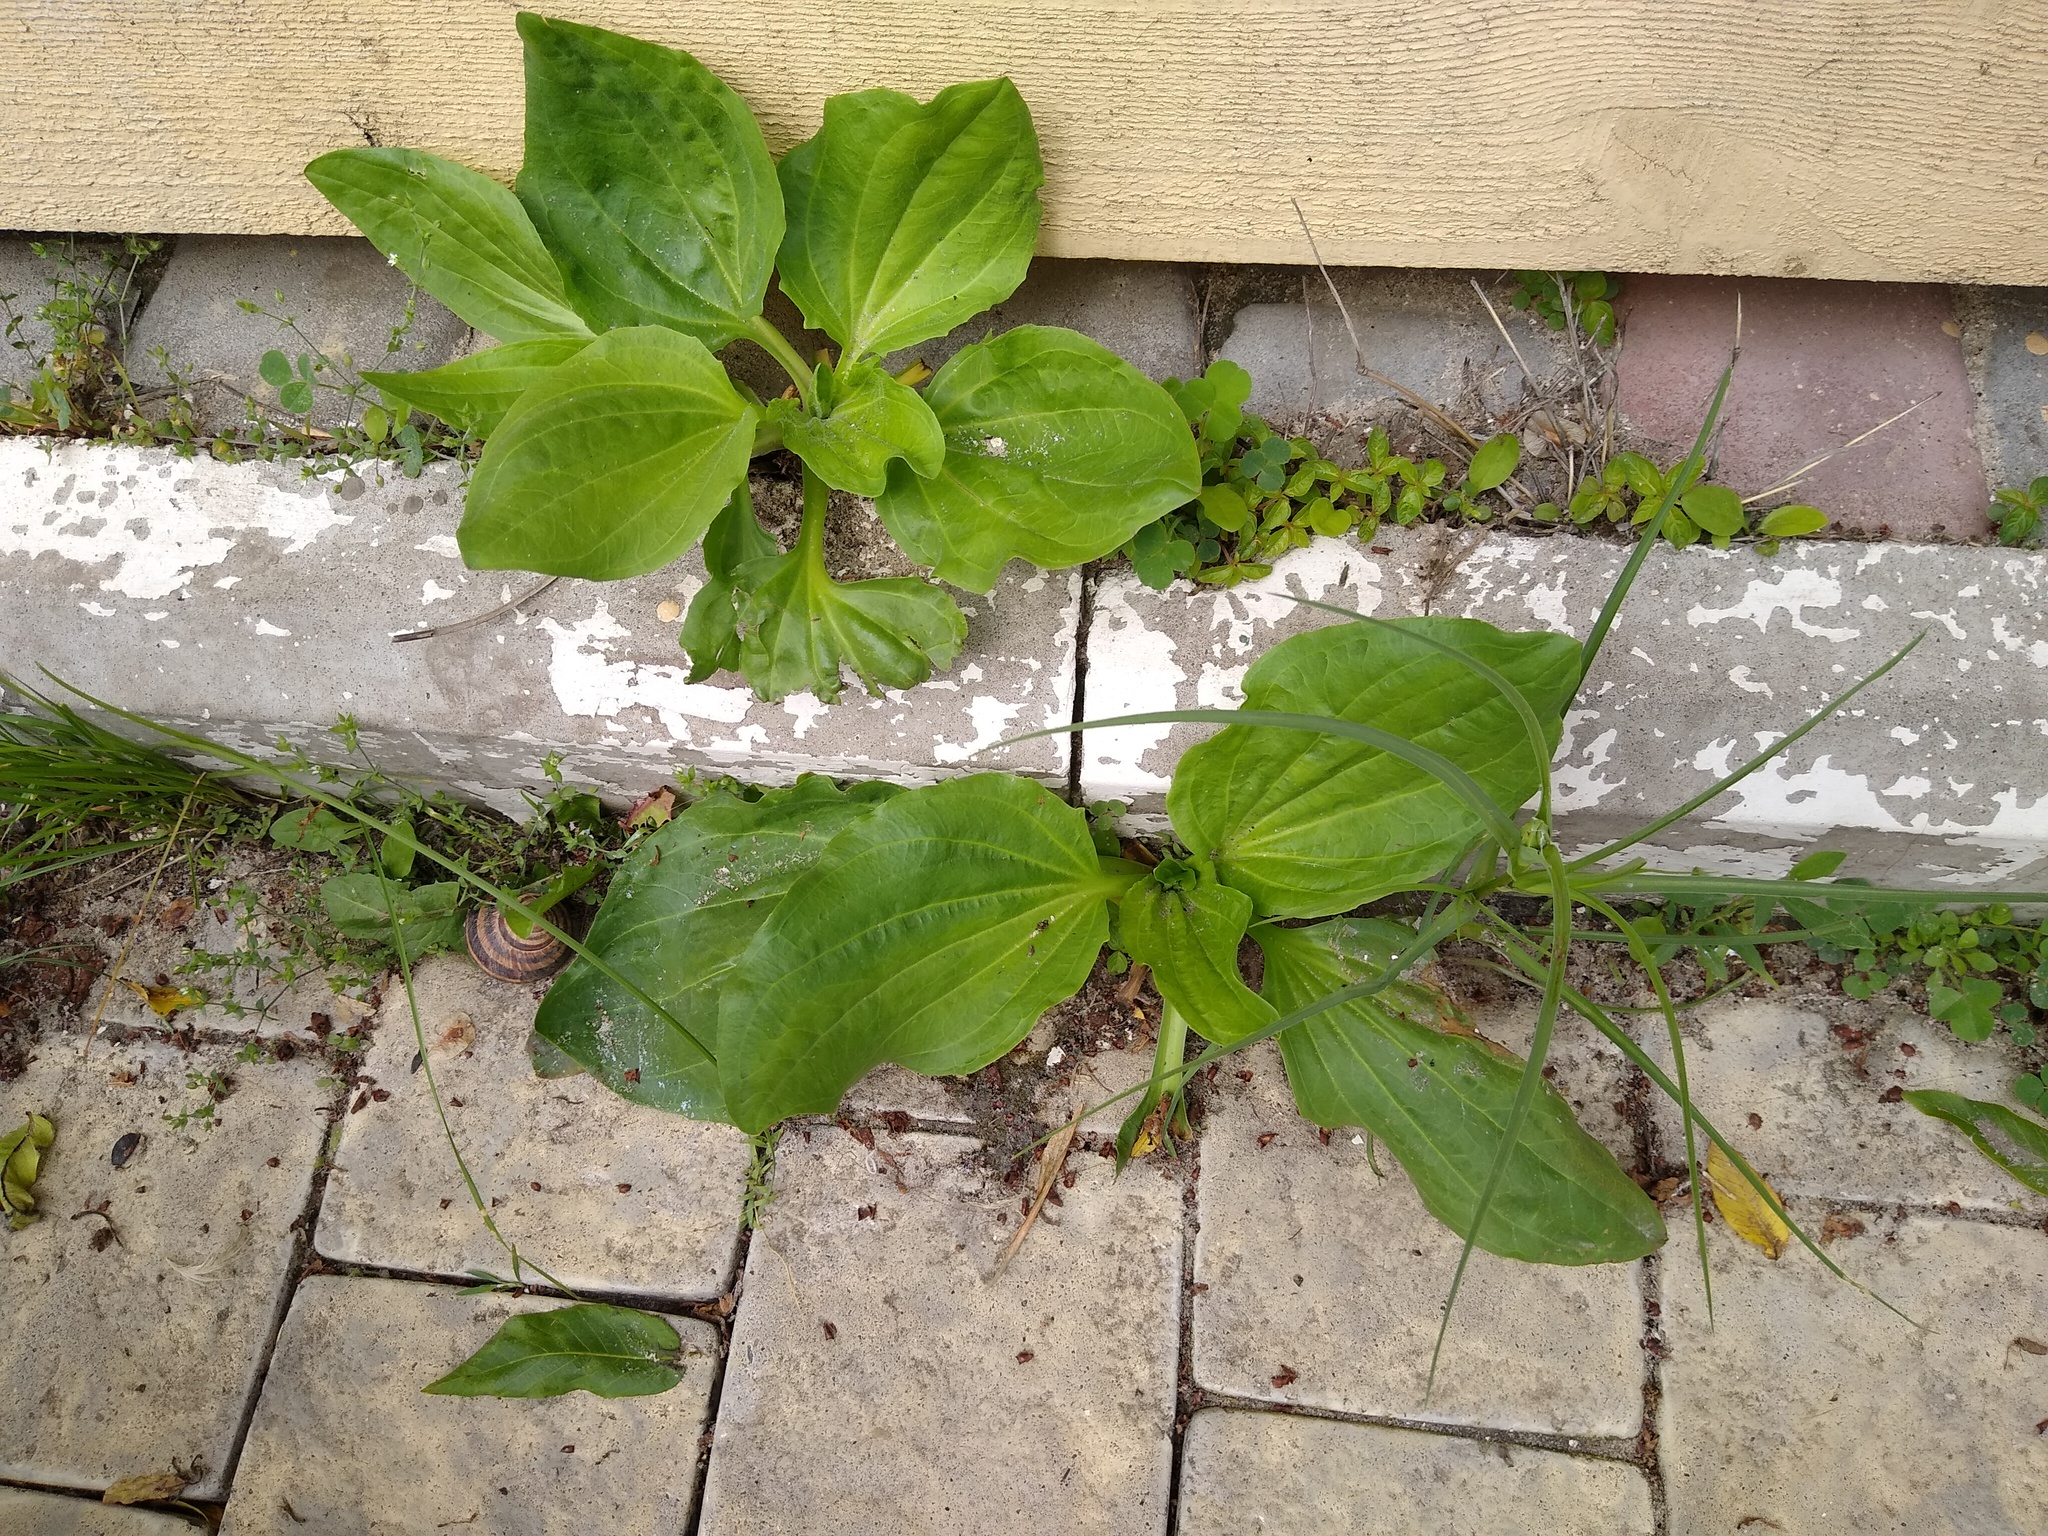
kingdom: Plantae
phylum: Tracheophyta
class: Magnoliopsida
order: Lamiales
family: Plantaginaceae
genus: Plantago
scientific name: Plantago major
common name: Common plantain
